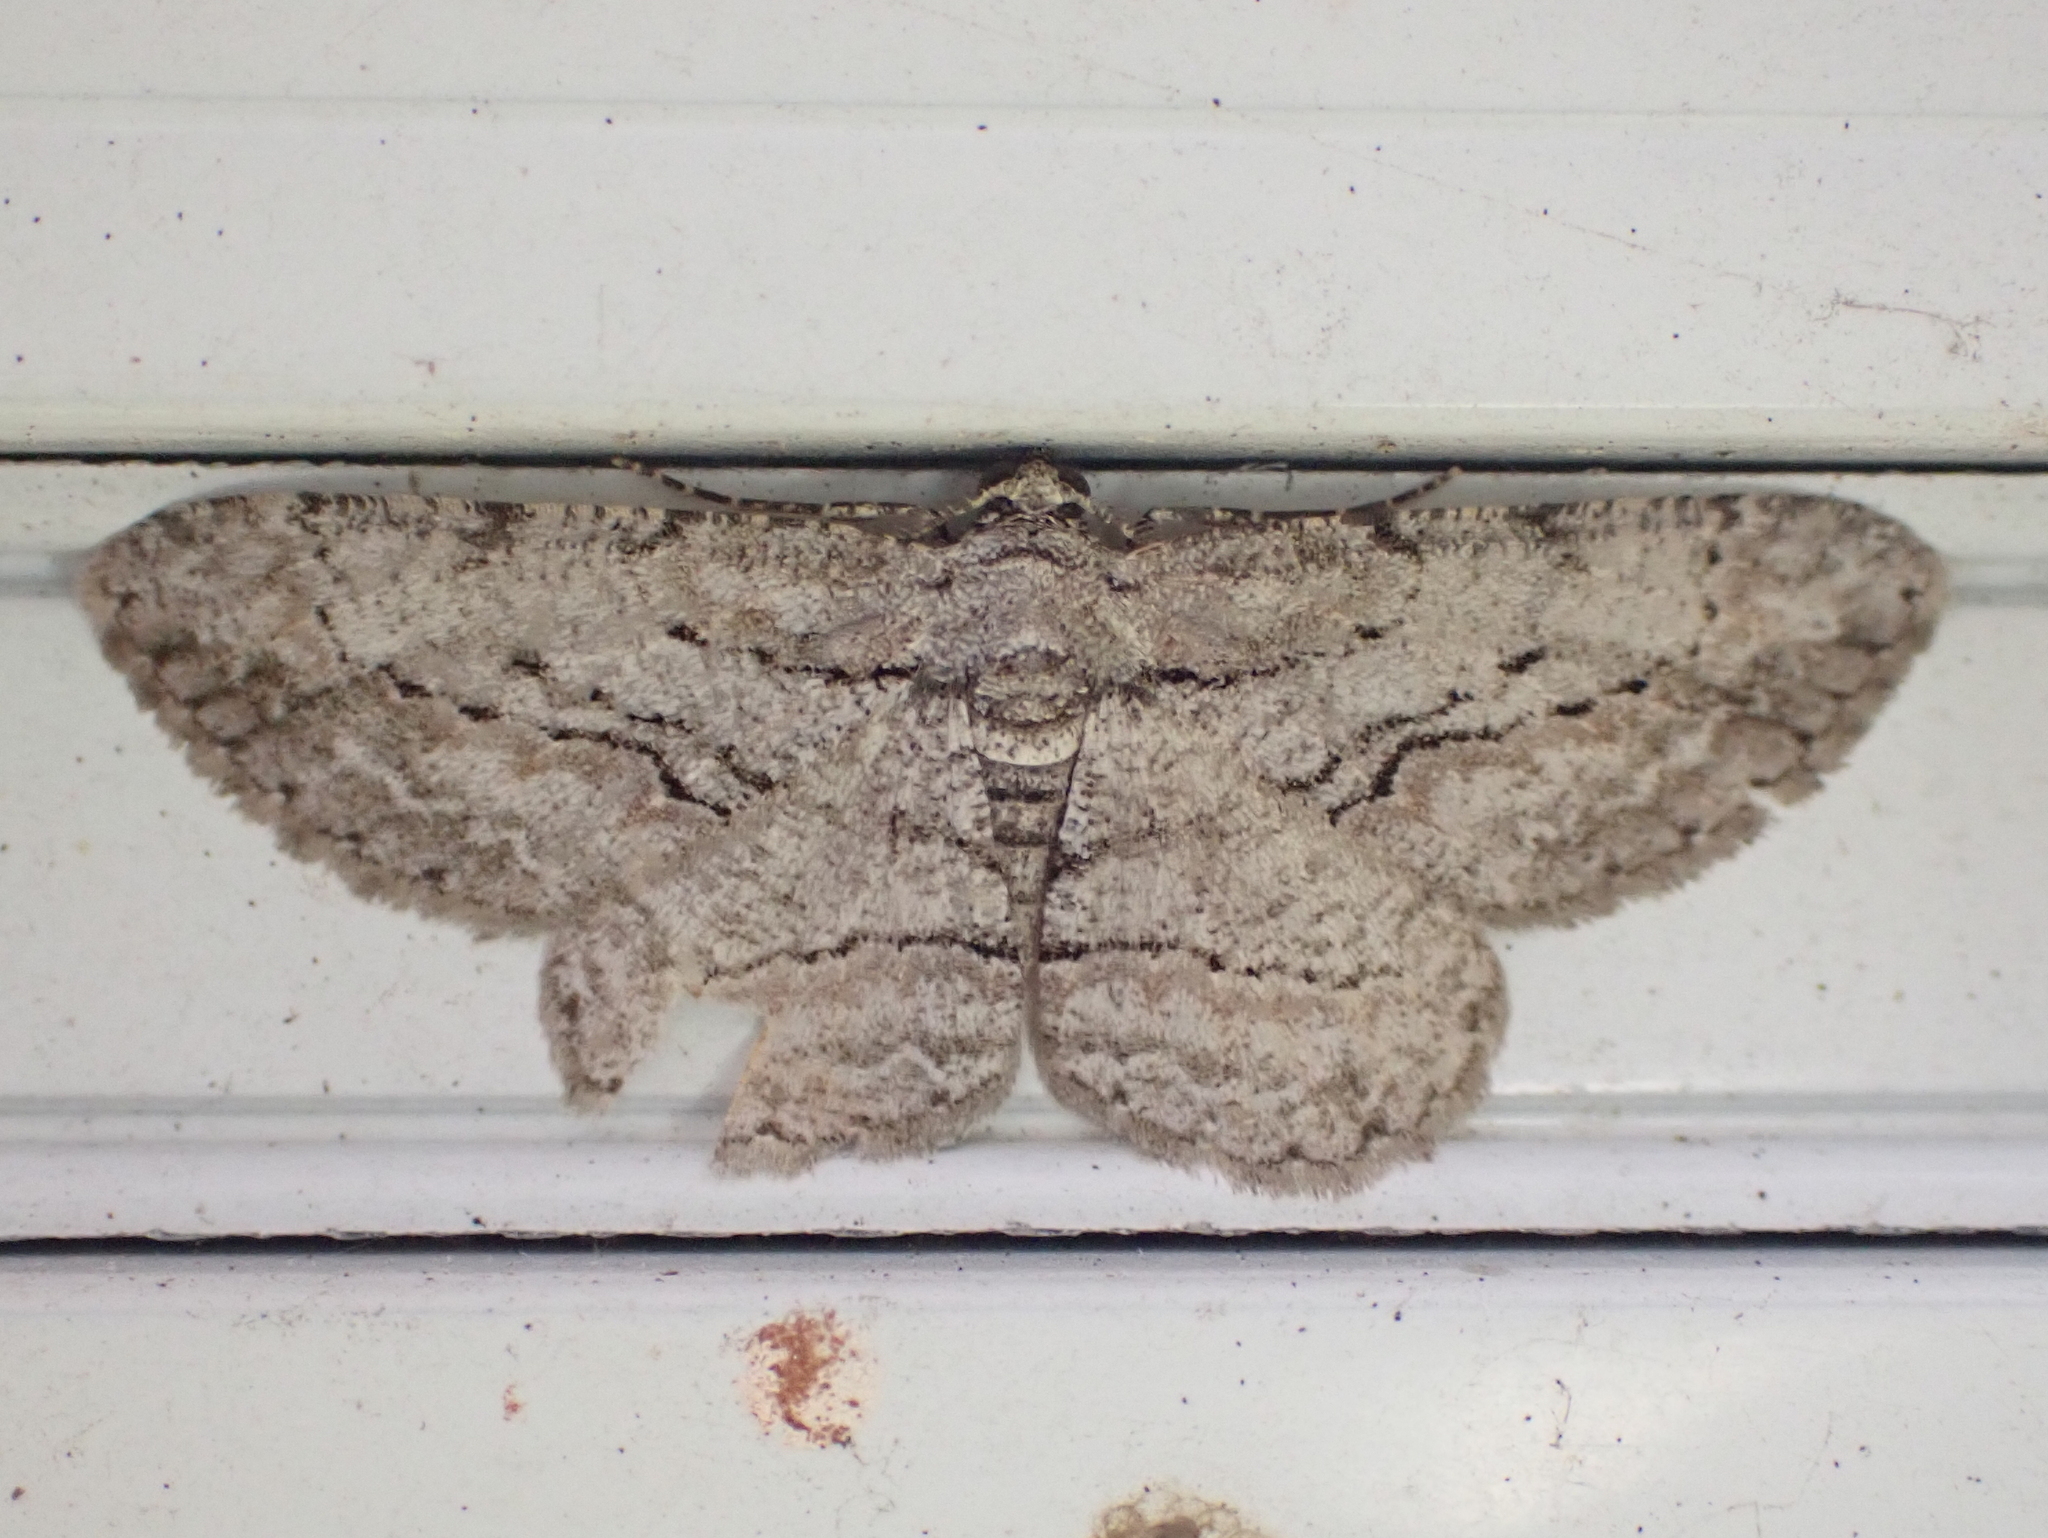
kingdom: Animalia
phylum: Arthropoda
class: Insecta
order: Lepidoptera
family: Geometridae
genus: Anavitrinella
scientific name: Anavitrinella pampinaria
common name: Common gray
